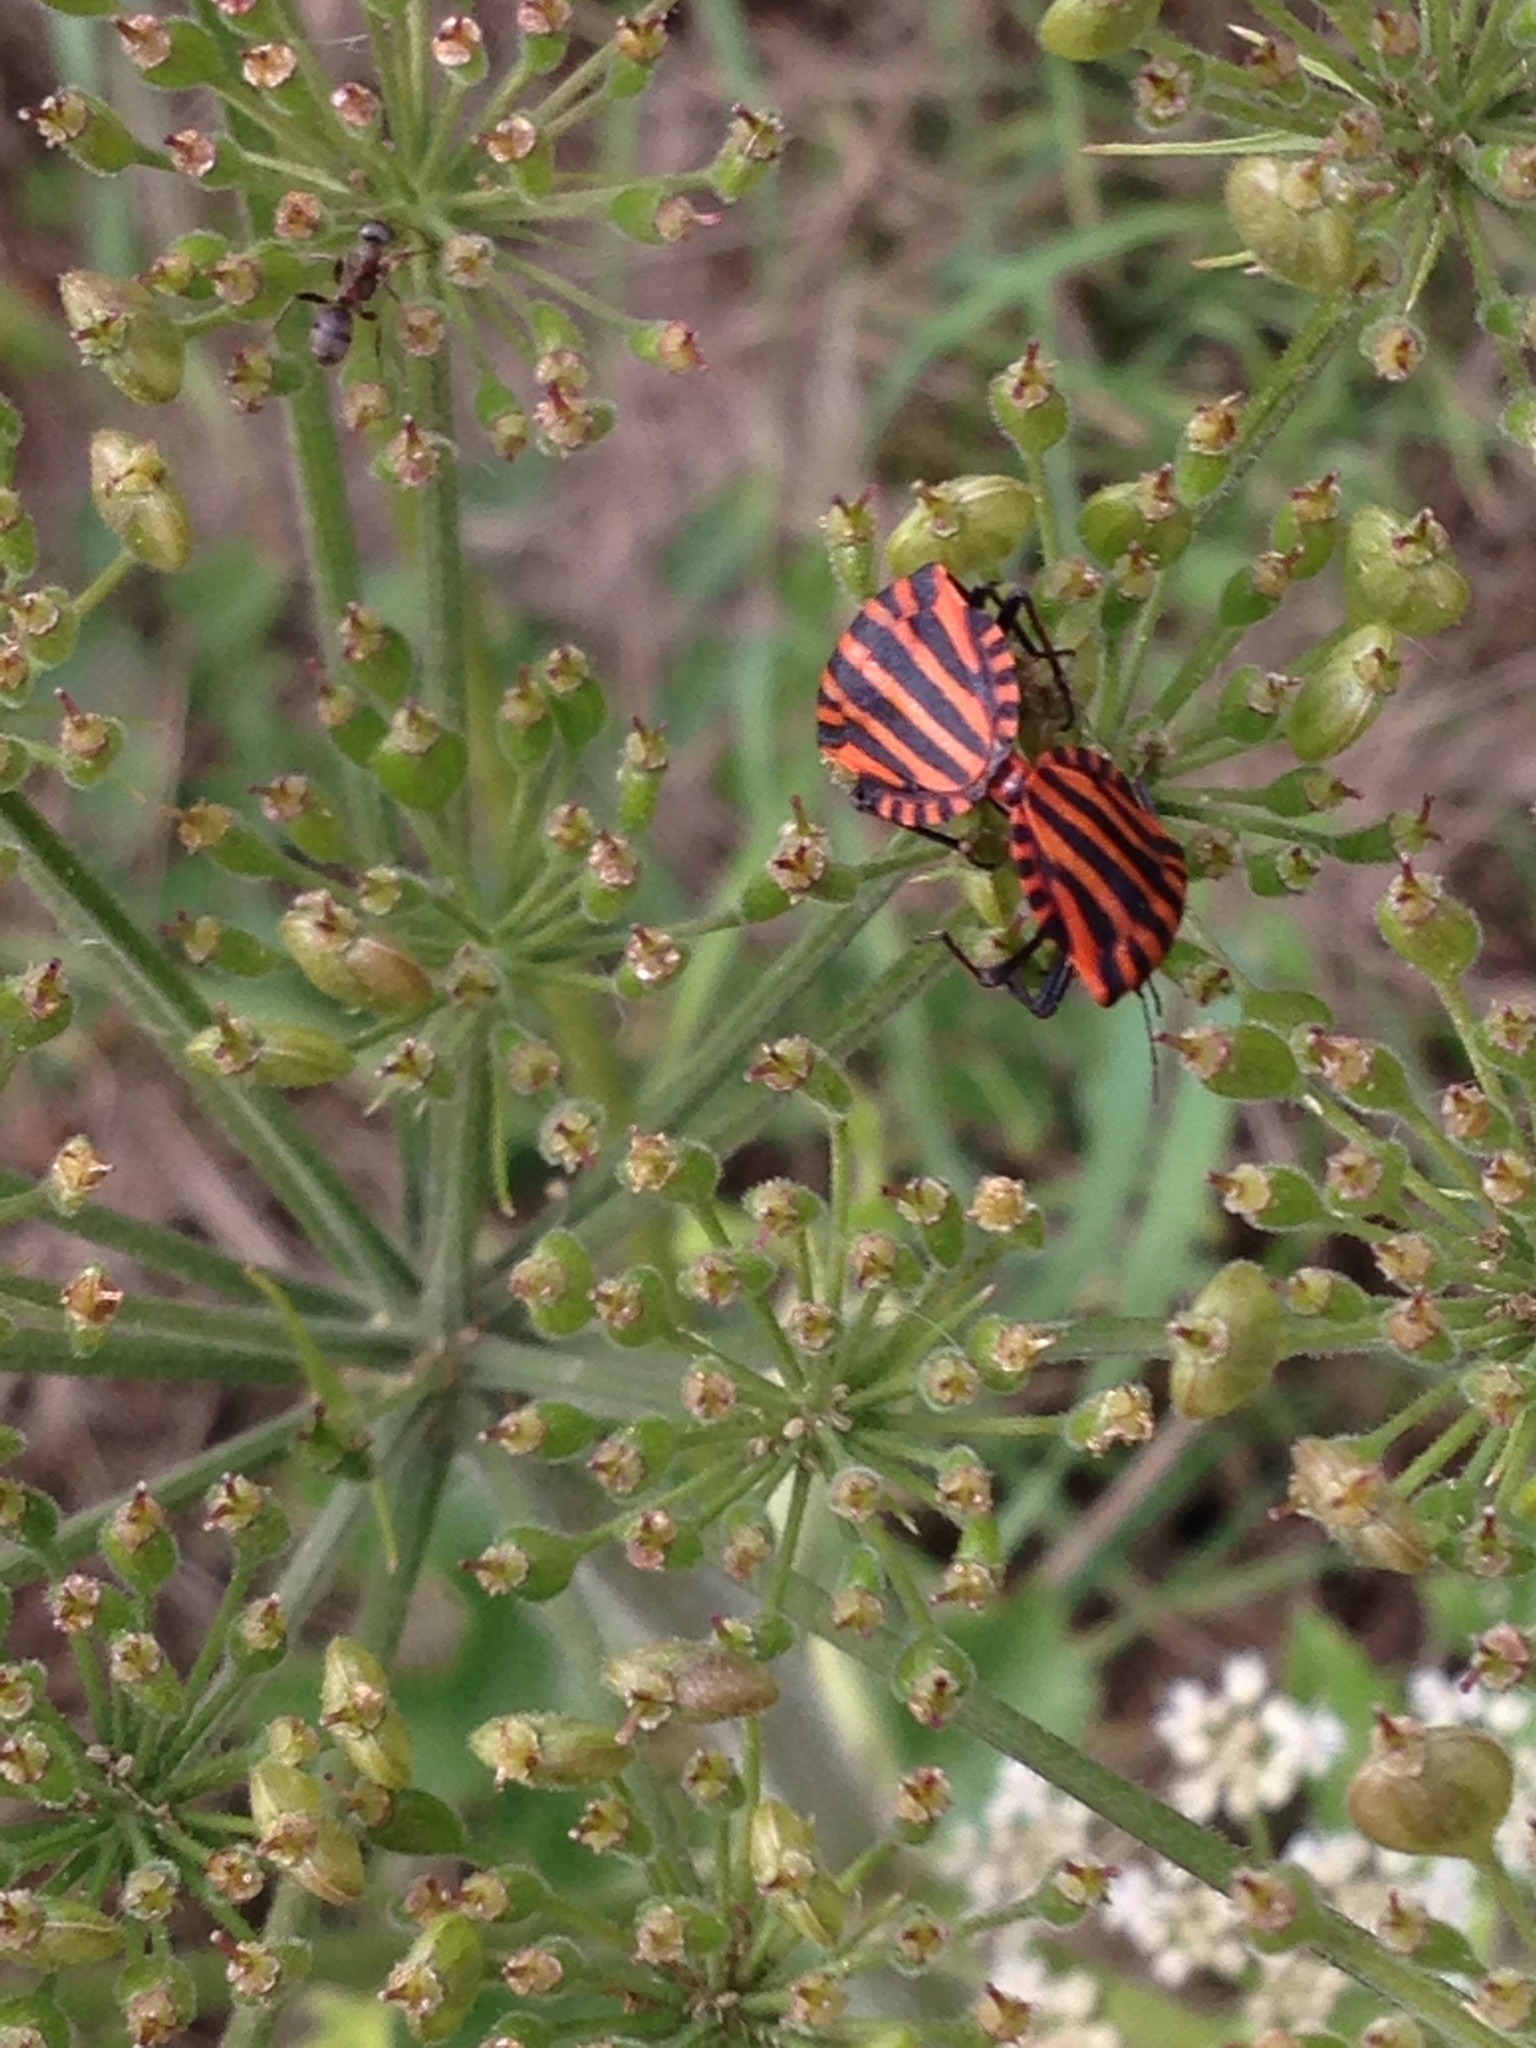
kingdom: Animalia
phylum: Arthropoda
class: Insecta
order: Hemiptera
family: Pentatomidae
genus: Graphosoma
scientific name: Graphosoma italicum
